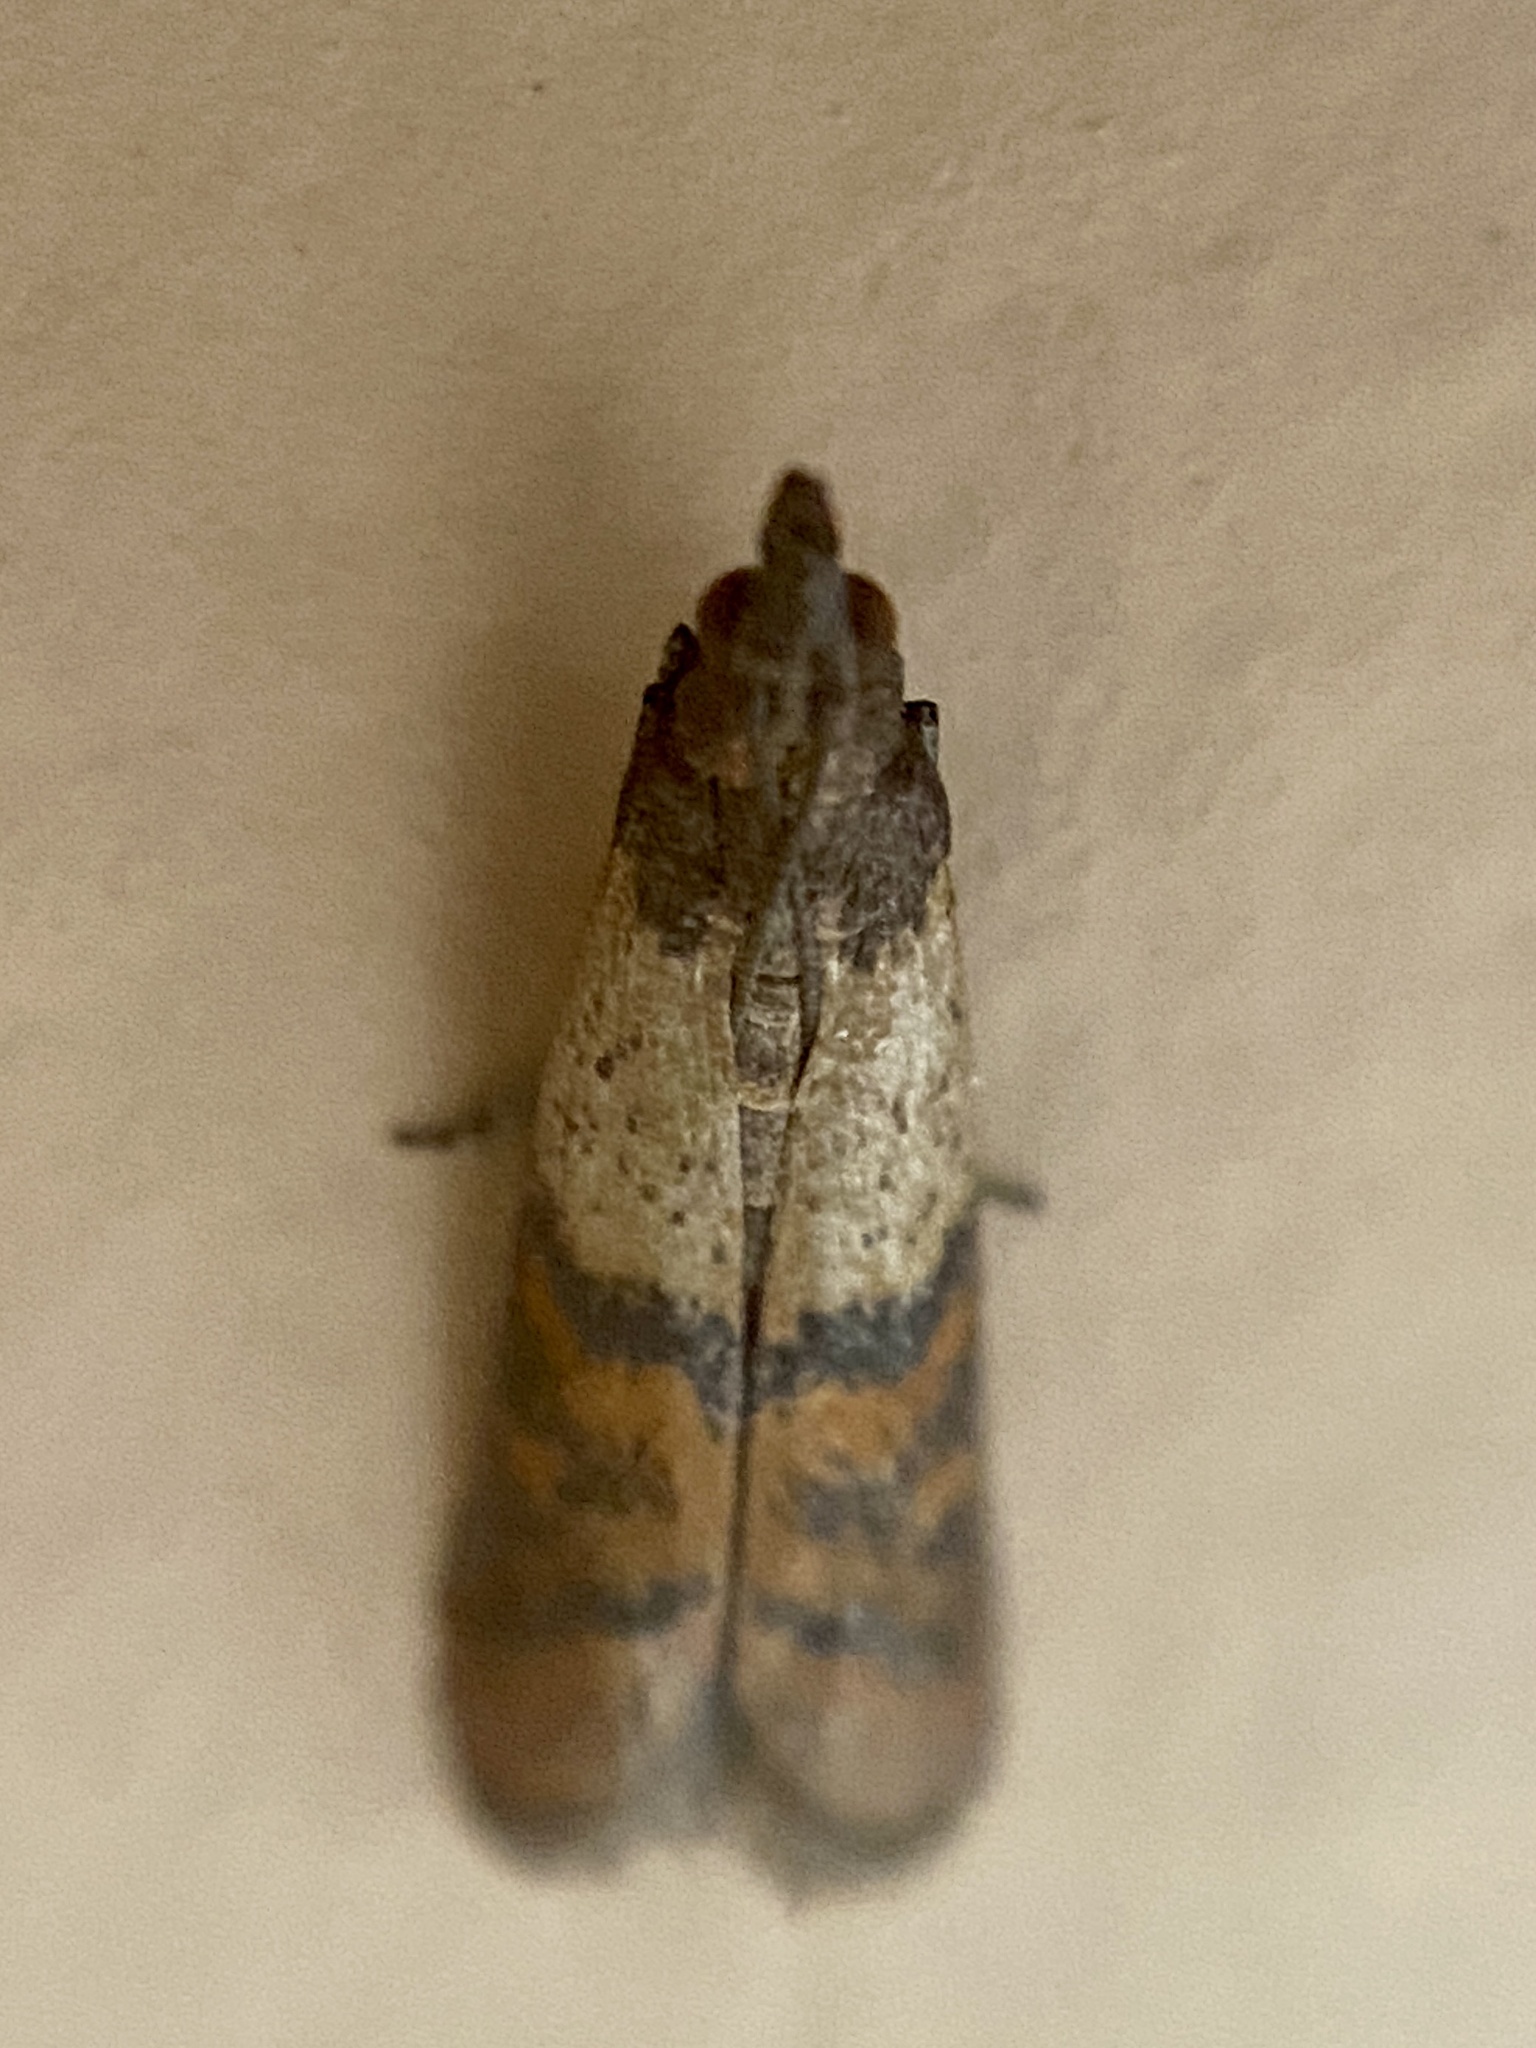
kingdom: Animalia
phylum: Arthropoda
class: Insecta
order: Lepidoptera
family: Pyralidae
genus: Plodia
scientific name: Plodia interpunctella
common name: Indian meal moth
